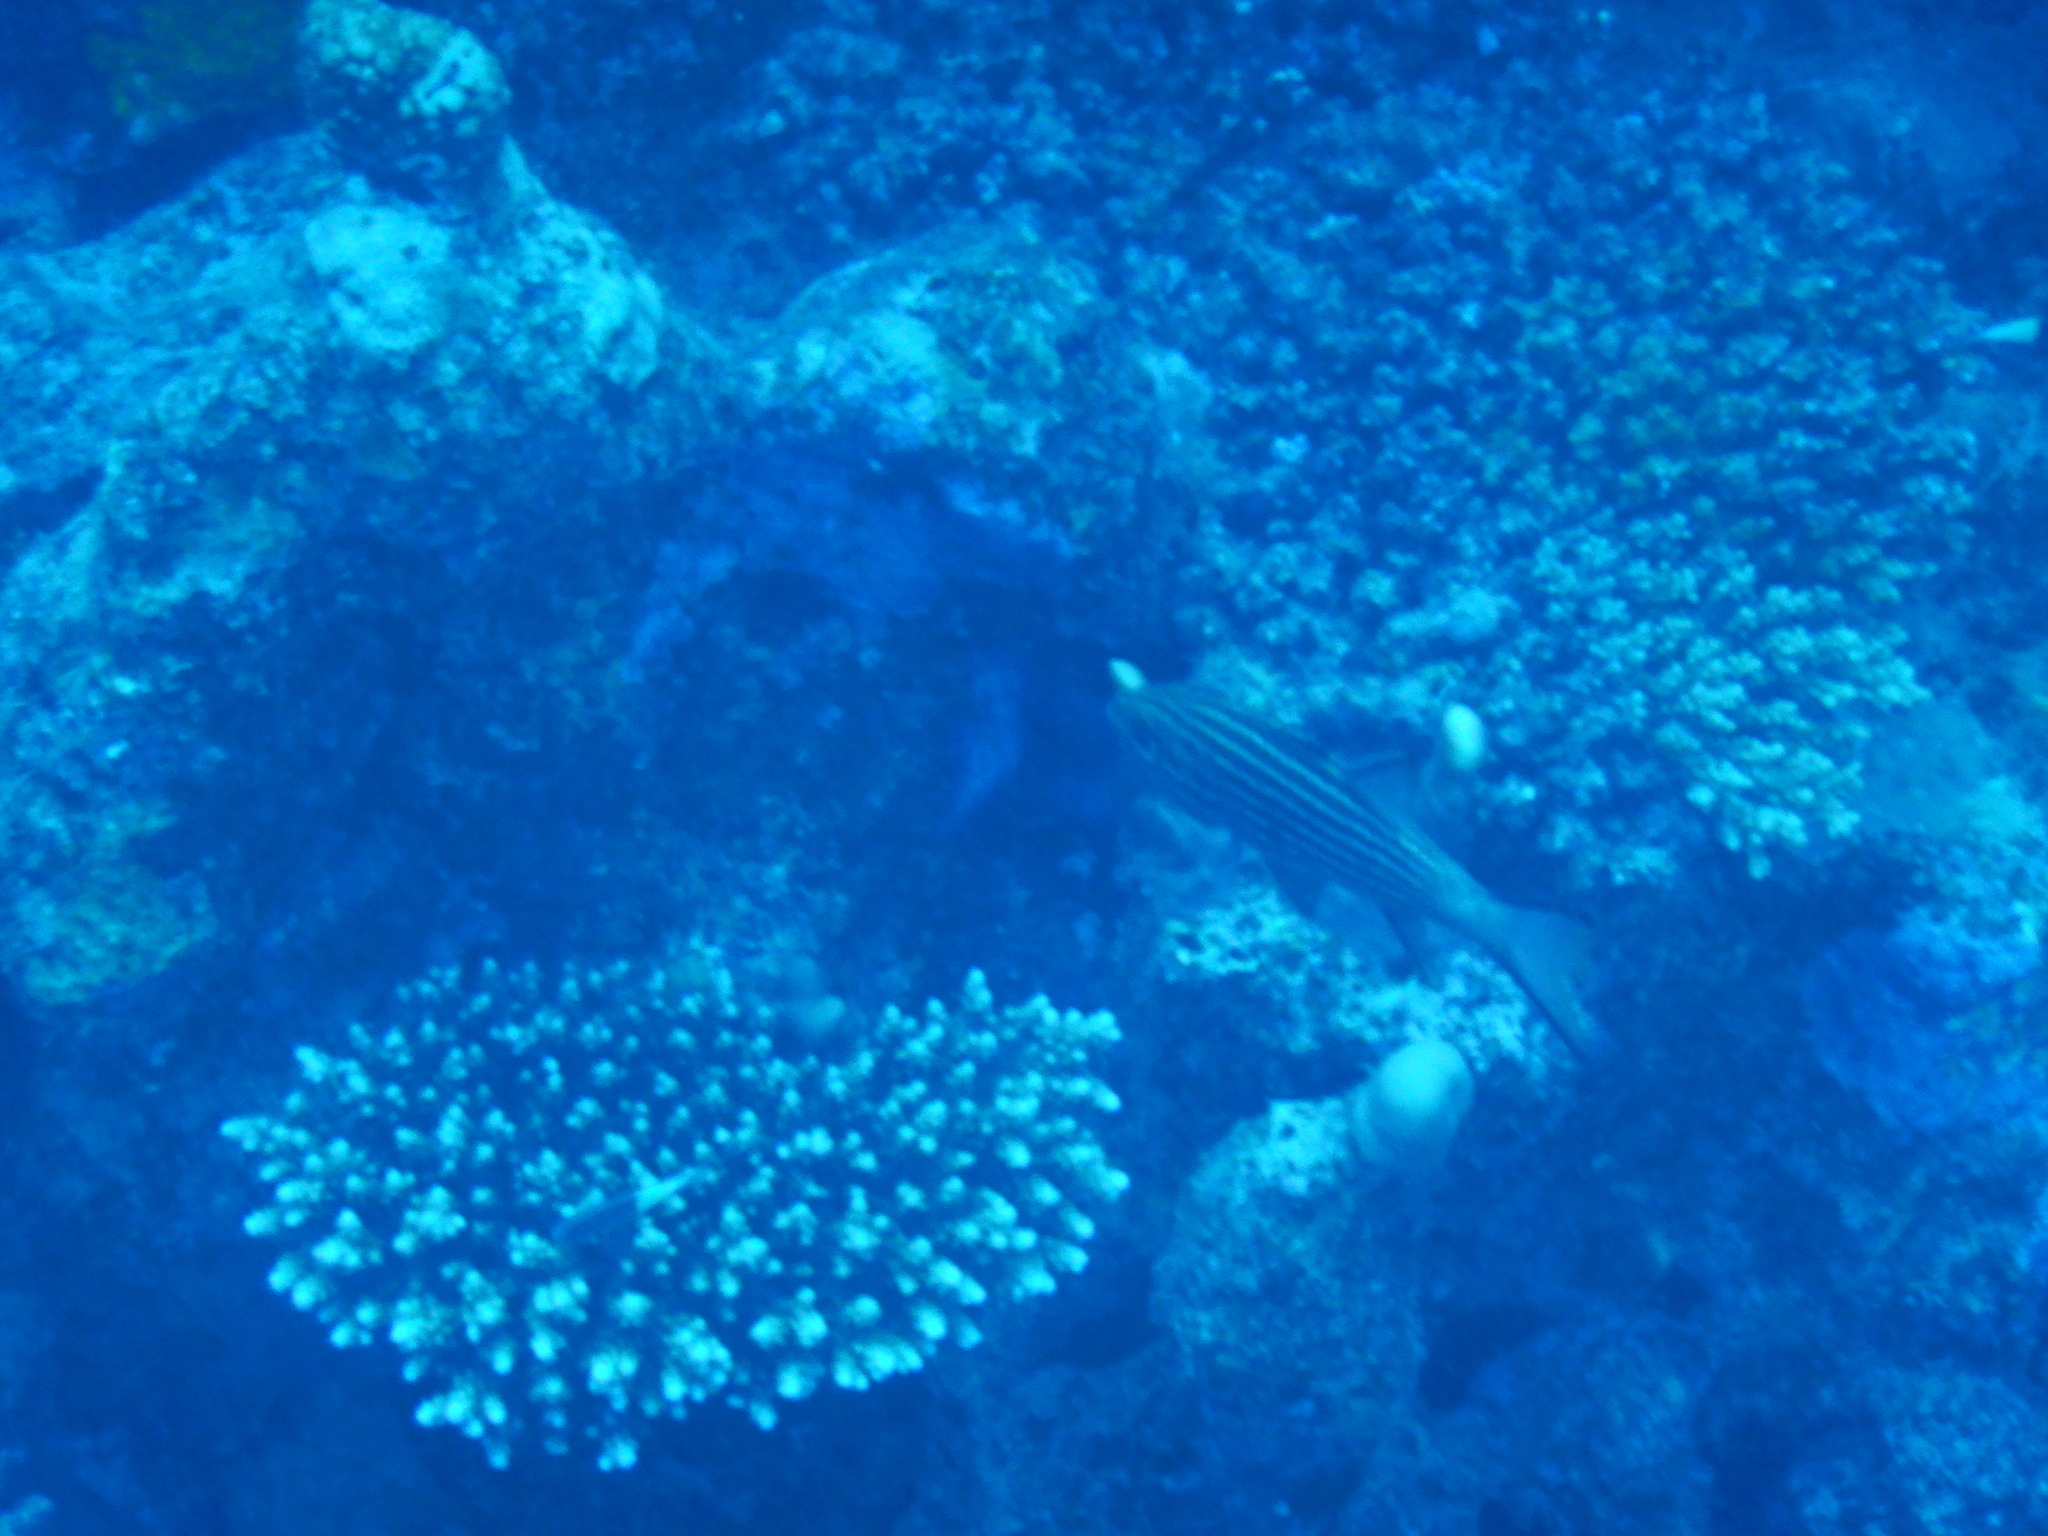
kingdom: Animalia
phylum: Chordata
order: Perciformes
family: Apogonidae
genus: Cheilodipterus
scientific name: Cheilodipterus macrodon
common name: Eight-lined cardinalfish
